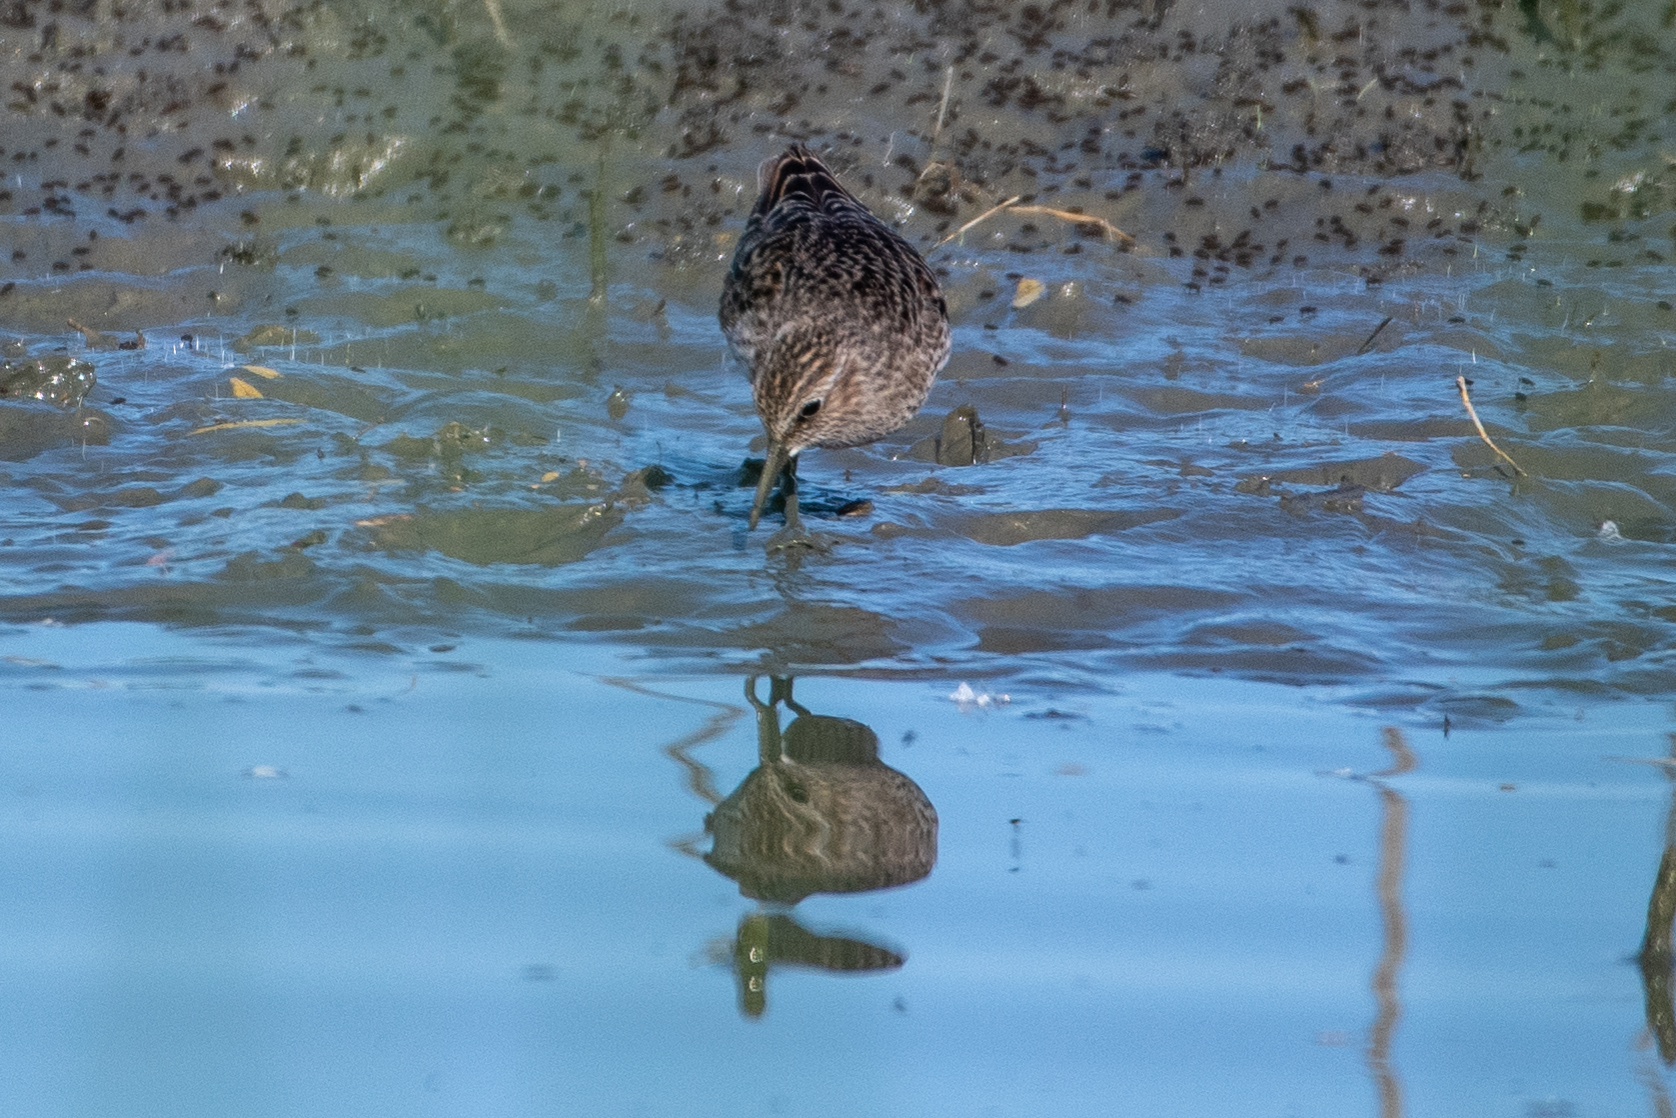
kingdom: Animalia
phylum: Chordata
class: Aves
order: Charadriiformes
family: Scolopacidae
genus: Calidris
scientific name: Calidris minutilla
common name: Least sandpiper
